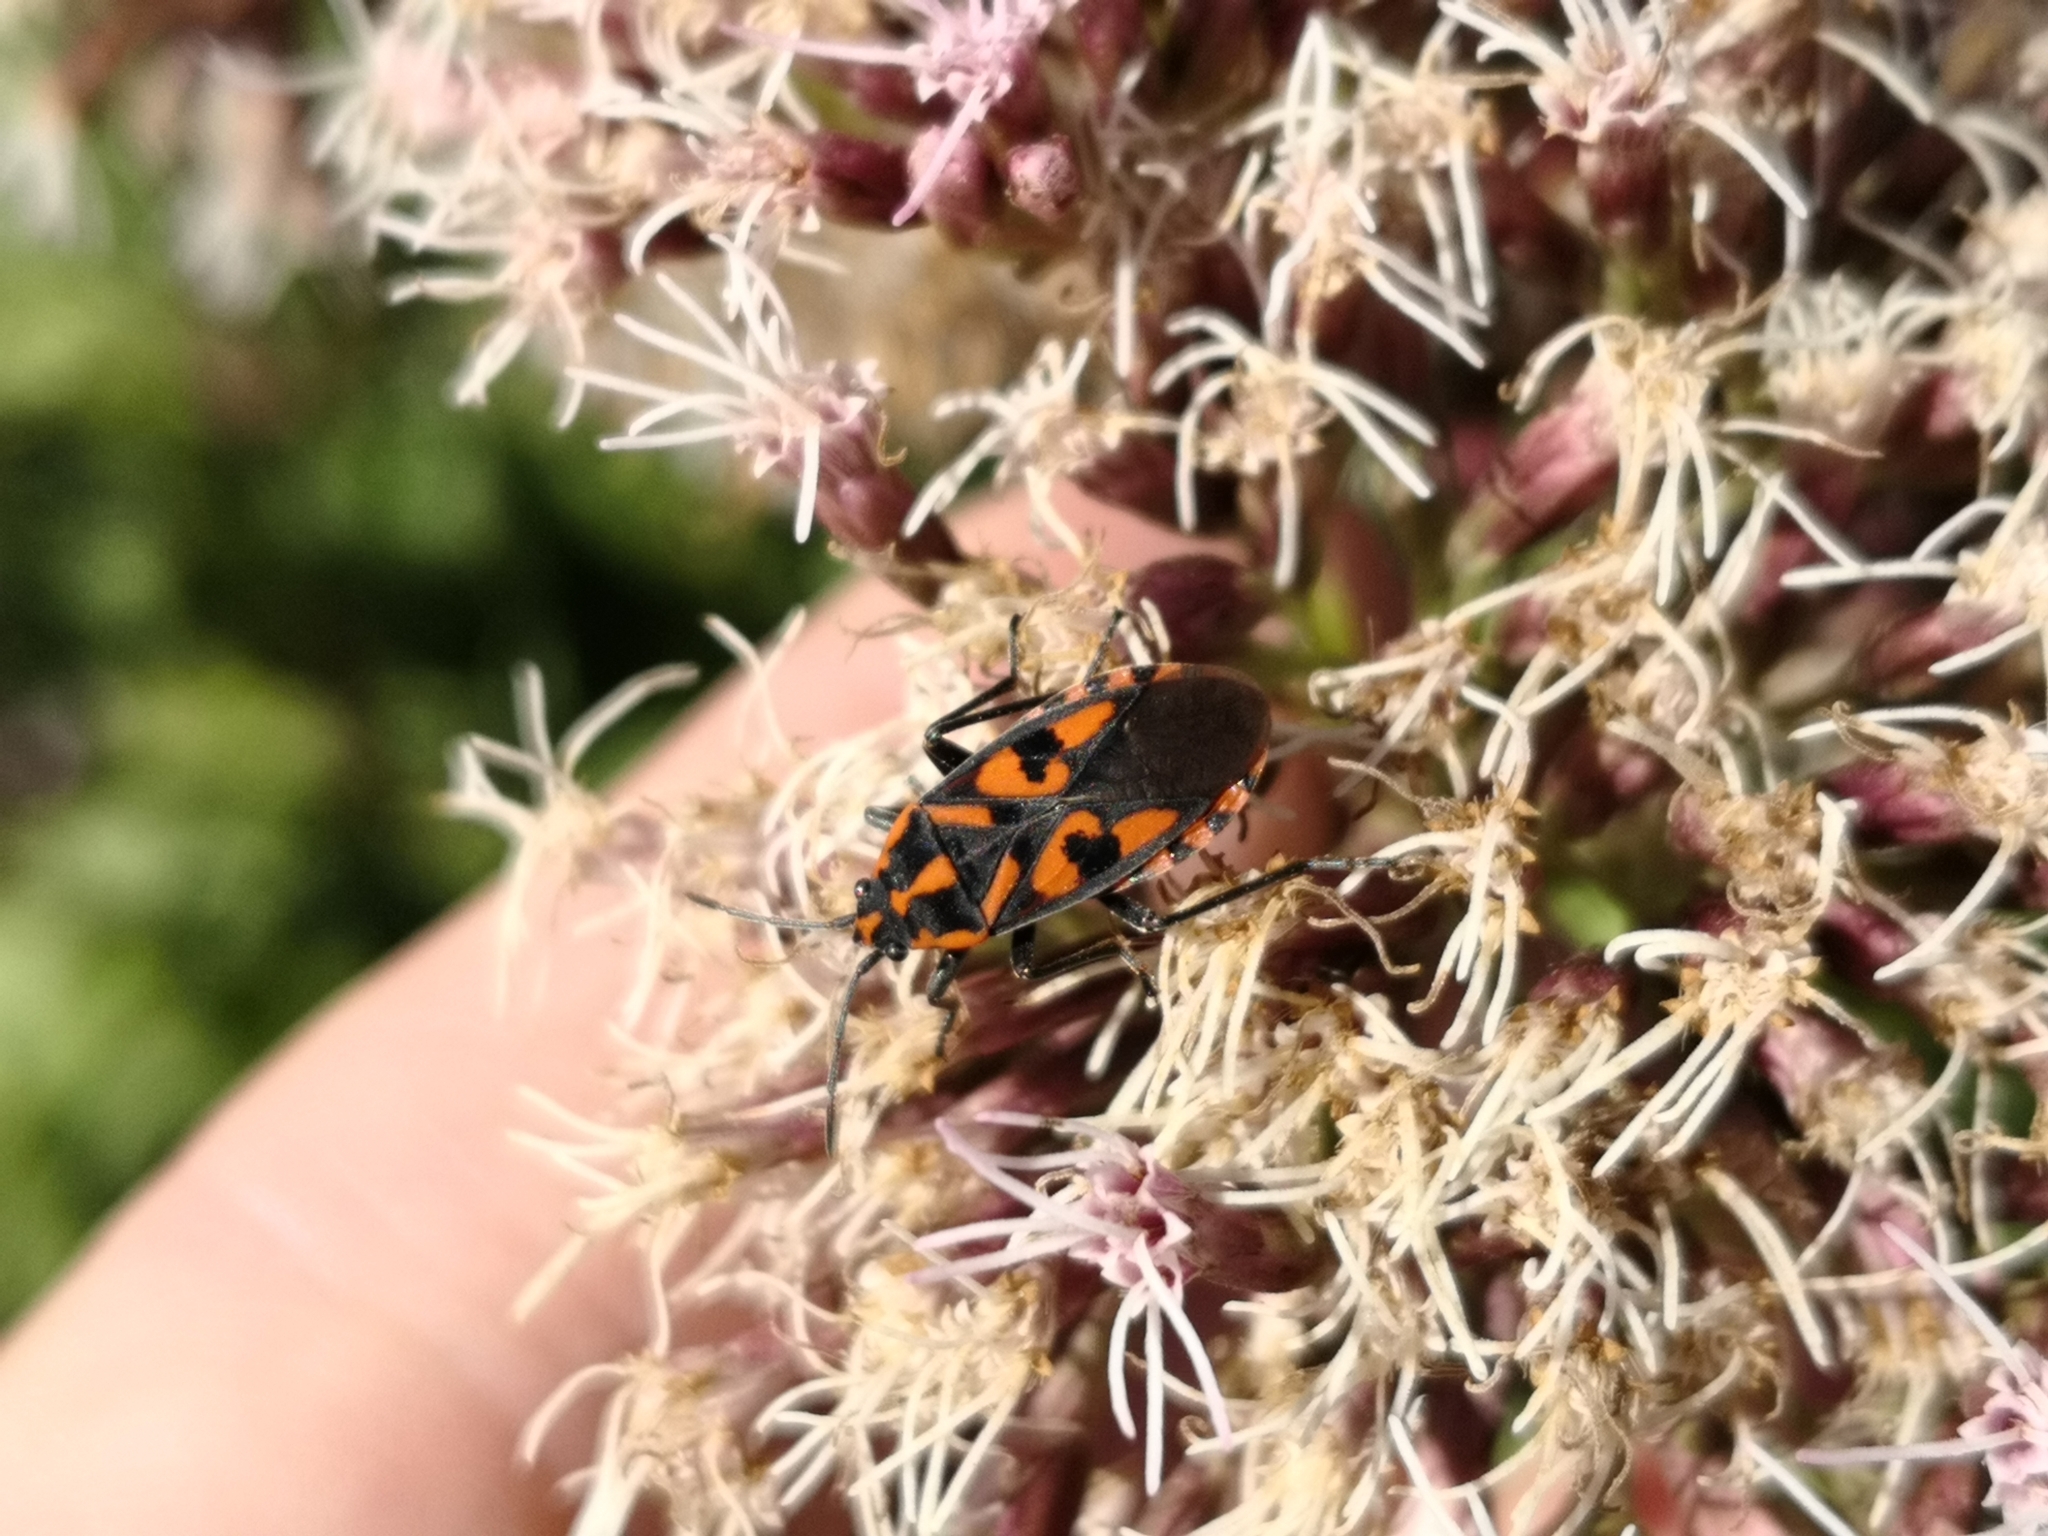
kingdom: Animalia
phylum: Arthropoda
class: Insecta
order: Hemiptera
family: Lygaeidae
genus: Spilostethus
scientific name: Spilostethus saxatilis
